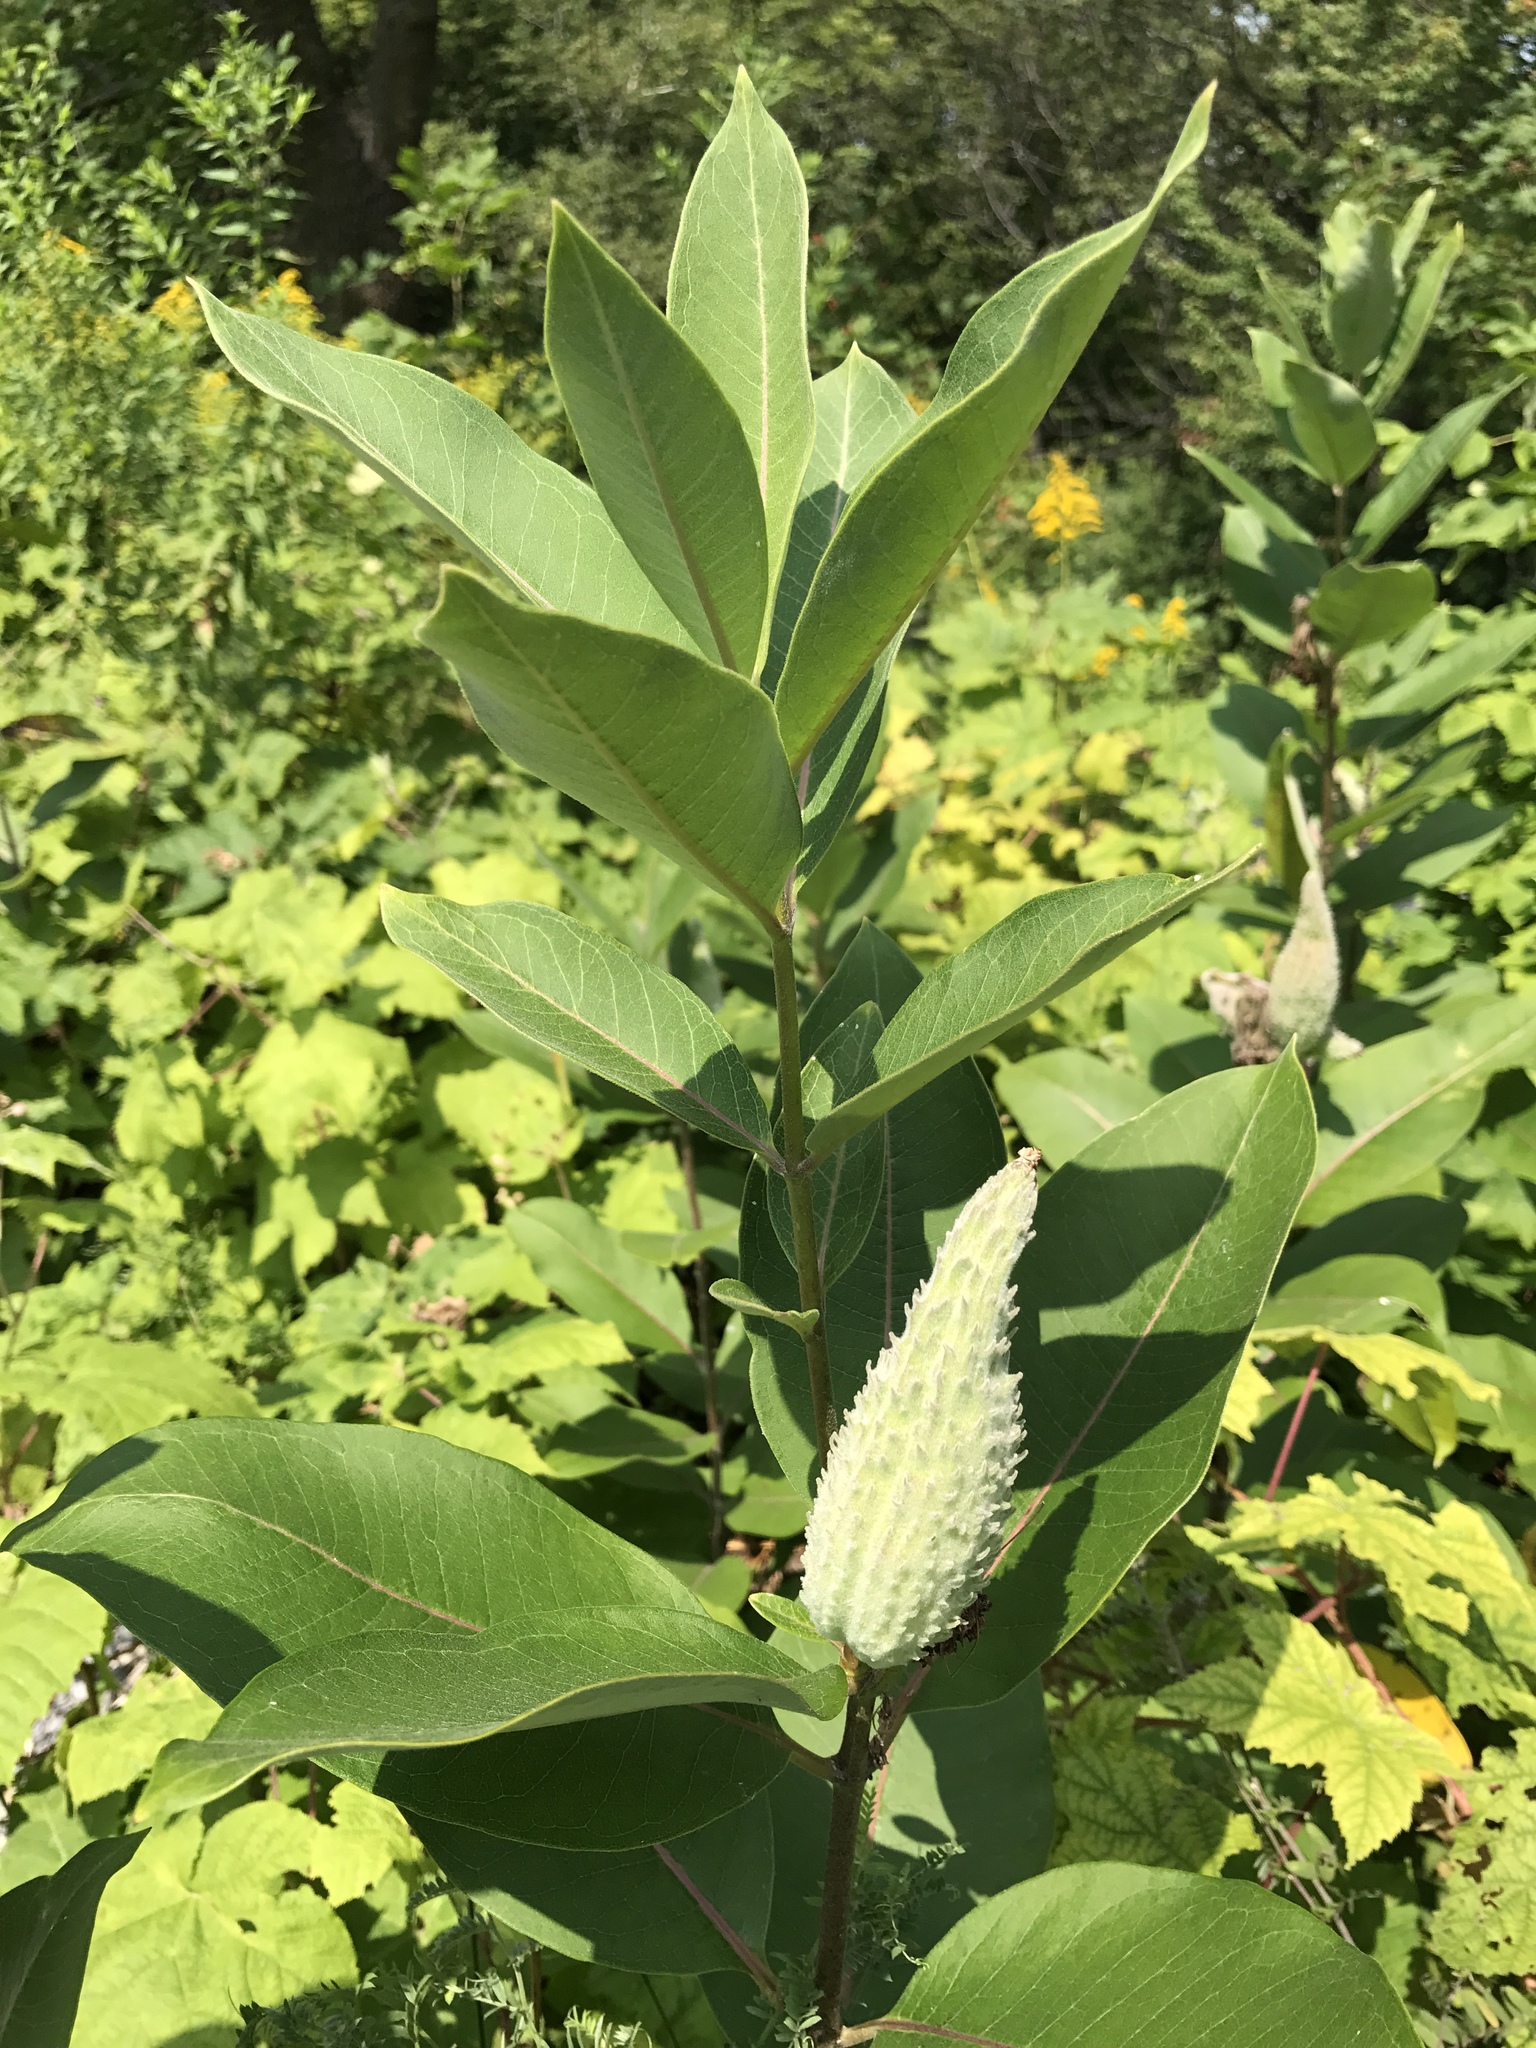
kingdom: Plantae
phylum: Tracheophyta
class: Magnoliopsida
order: Gentianales
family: Apocynaceae
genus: Asclepias
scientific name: Asclepias syriaca
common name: Common milkweed
